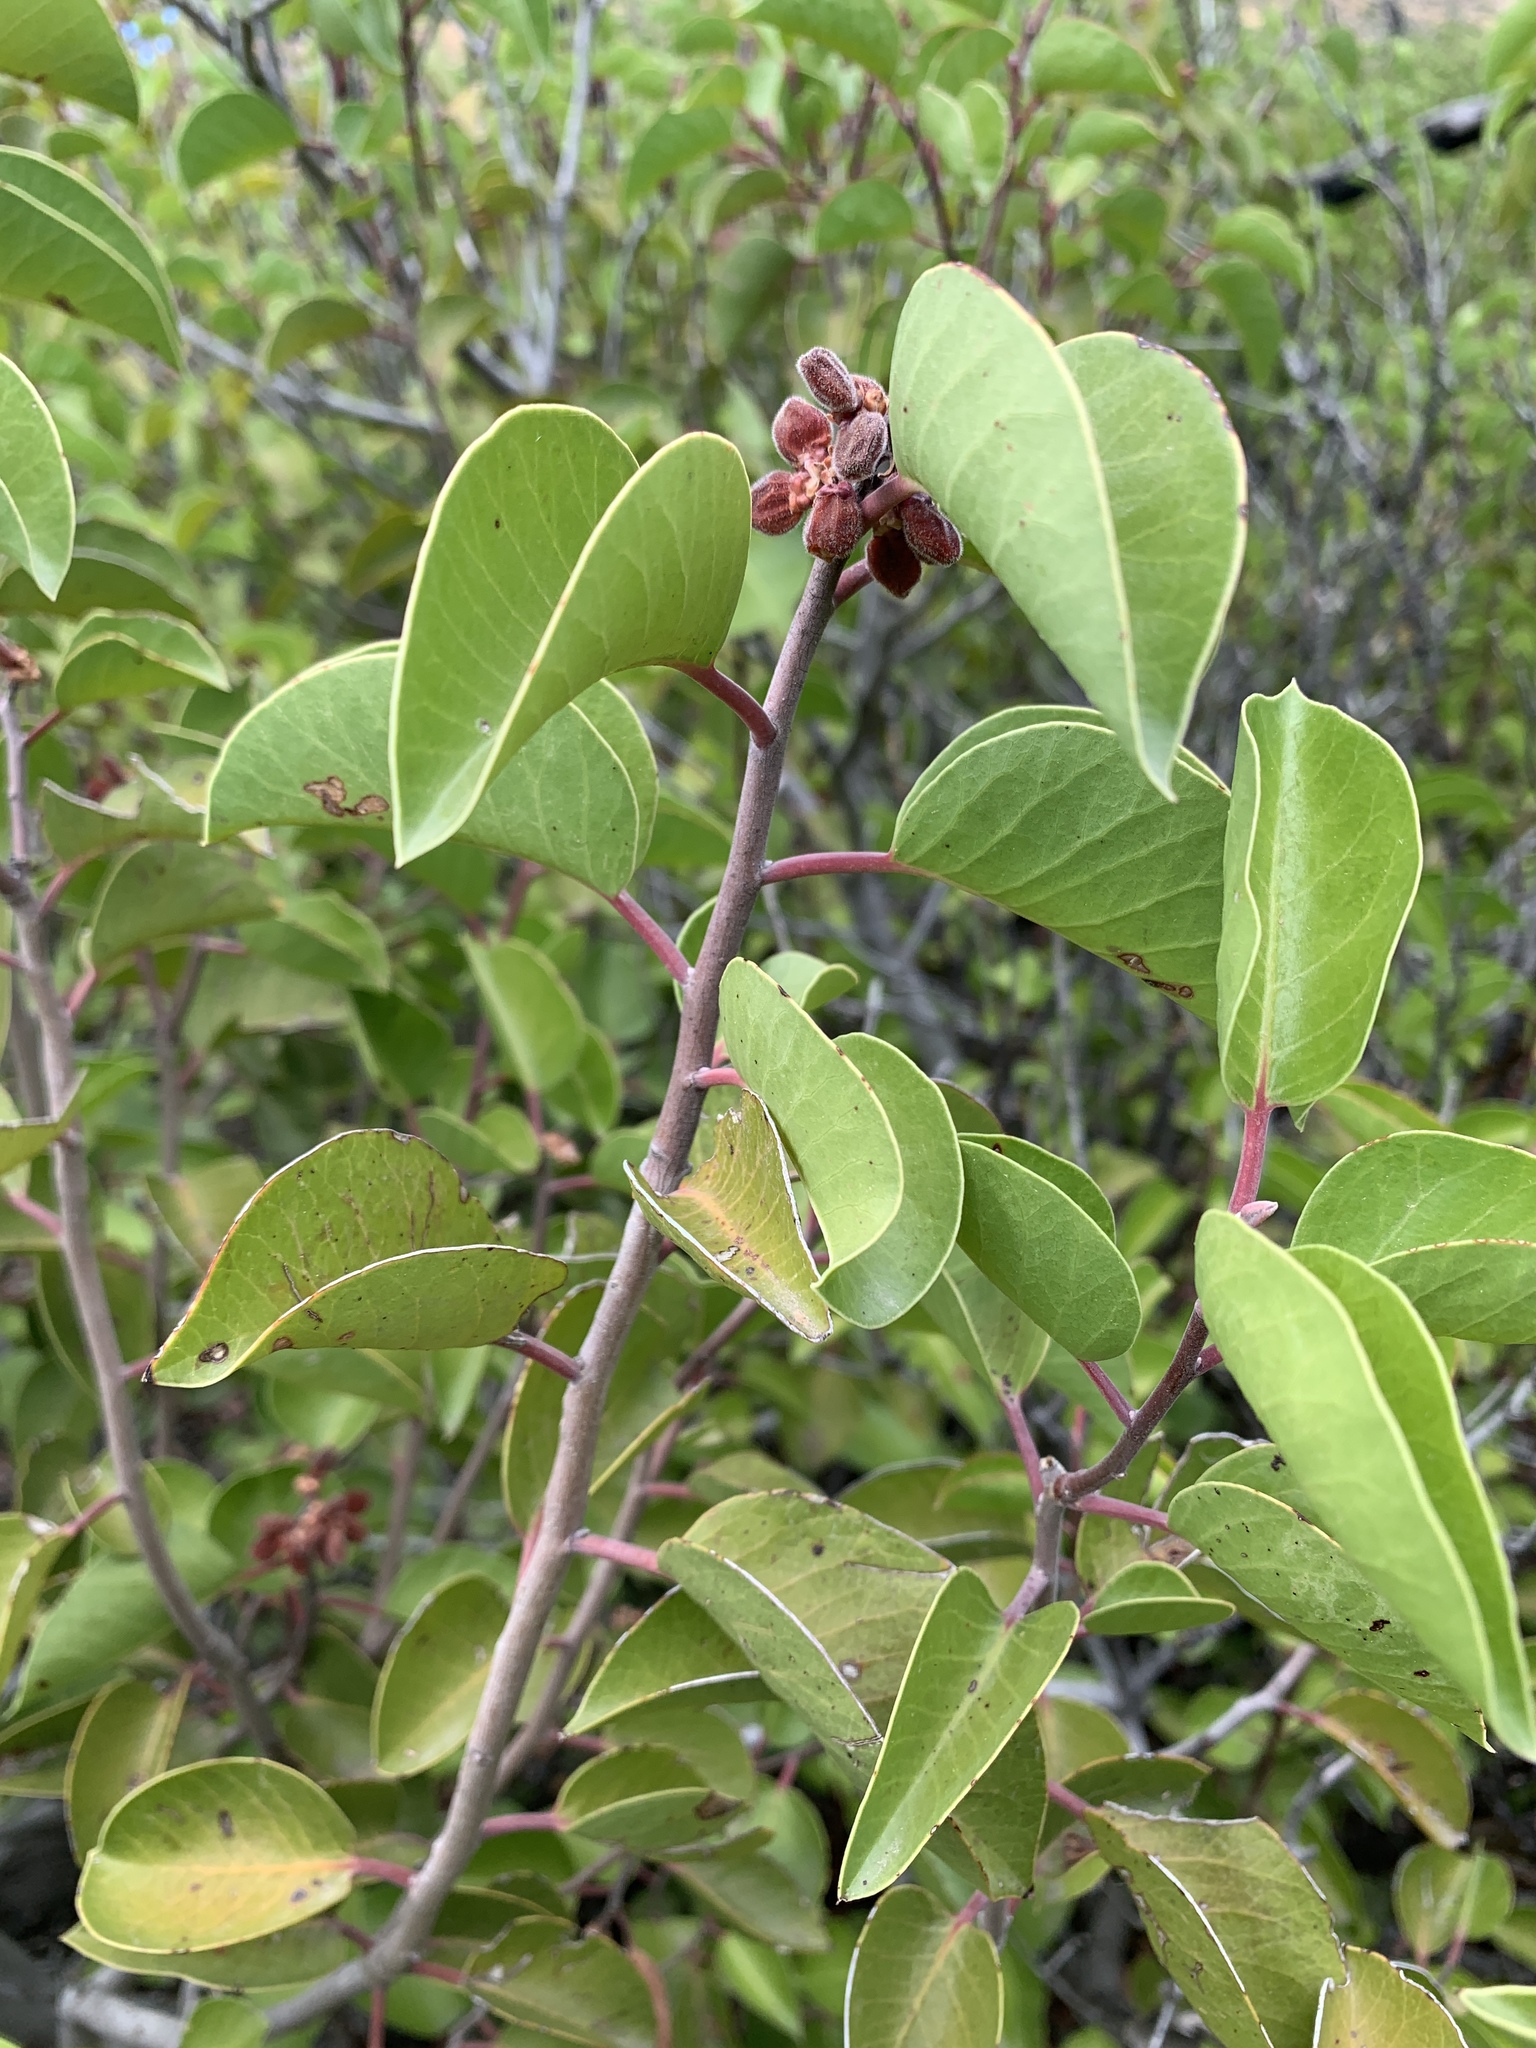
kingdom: Plantae
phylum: Tracheophyta
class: Magnoliopsida
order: Sapindales
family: Anacardiaceae
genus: Rhus
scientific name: Rhus ovata
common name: Sugar sumac
